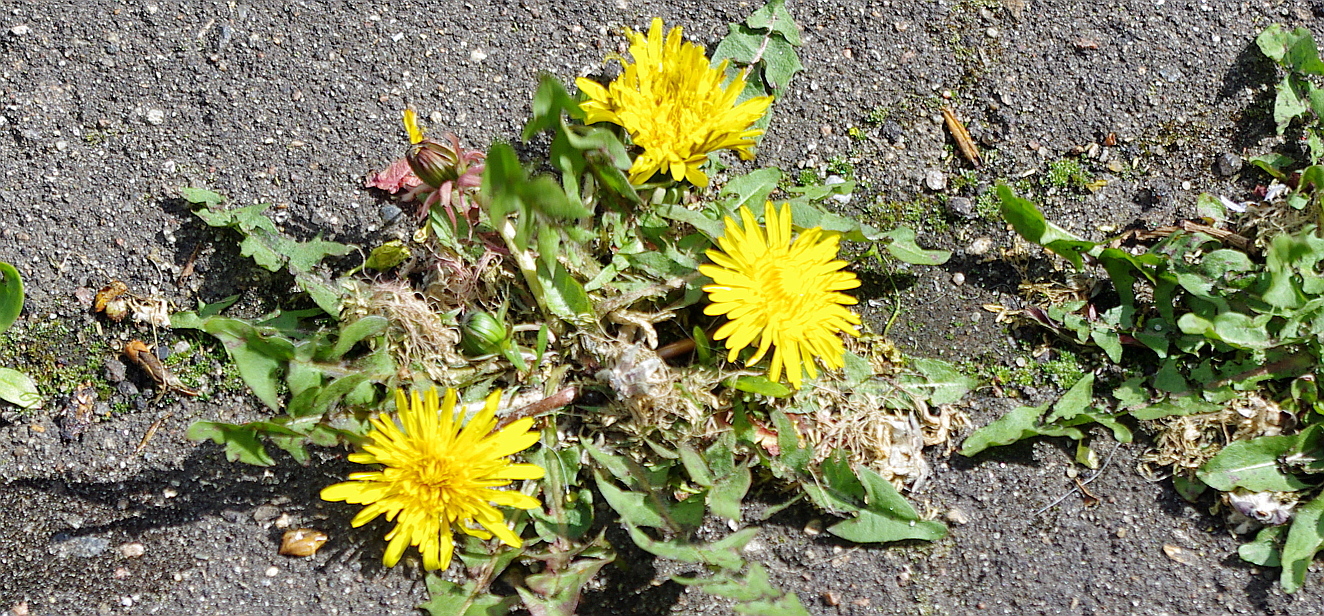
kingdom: Plantae
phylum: Tracheophyta
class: Magnoliopsida
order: Asterales
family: Asteraceae
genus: Taraxacum
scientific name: Taraxacum officinale
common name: Common dandelion
